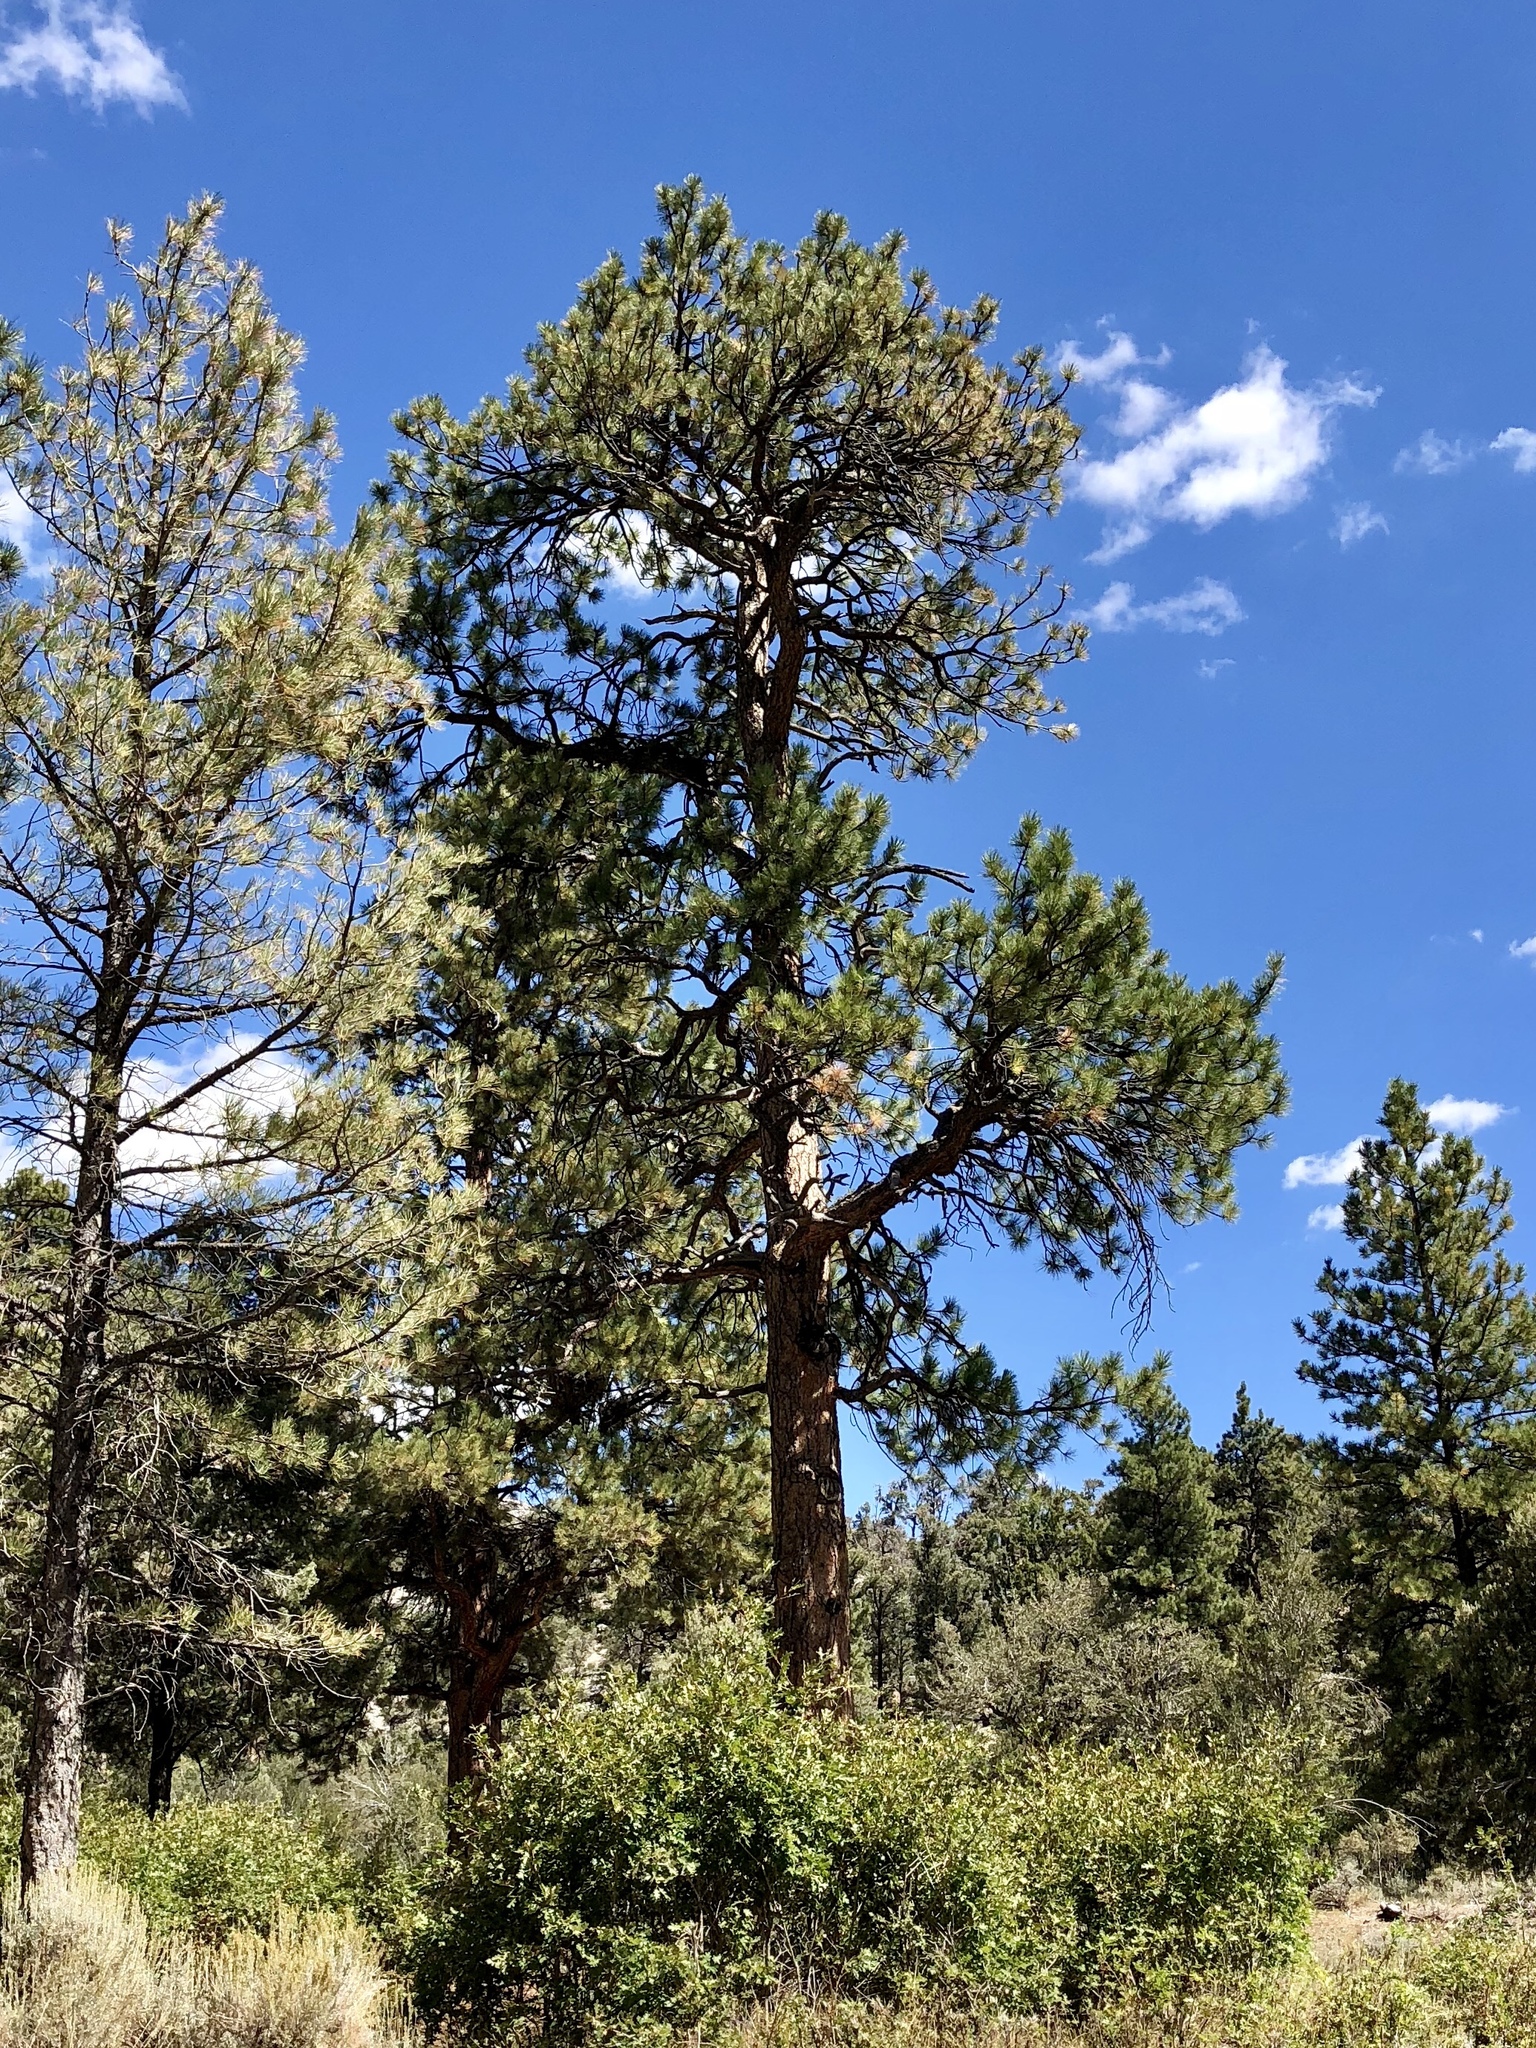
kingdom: Plantae
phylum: Tracheophyta
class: Pinopsida
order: Pinales
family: Pinaceae
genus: Pinus
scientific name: Pinus ponderosa
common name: Western yellow-pine
